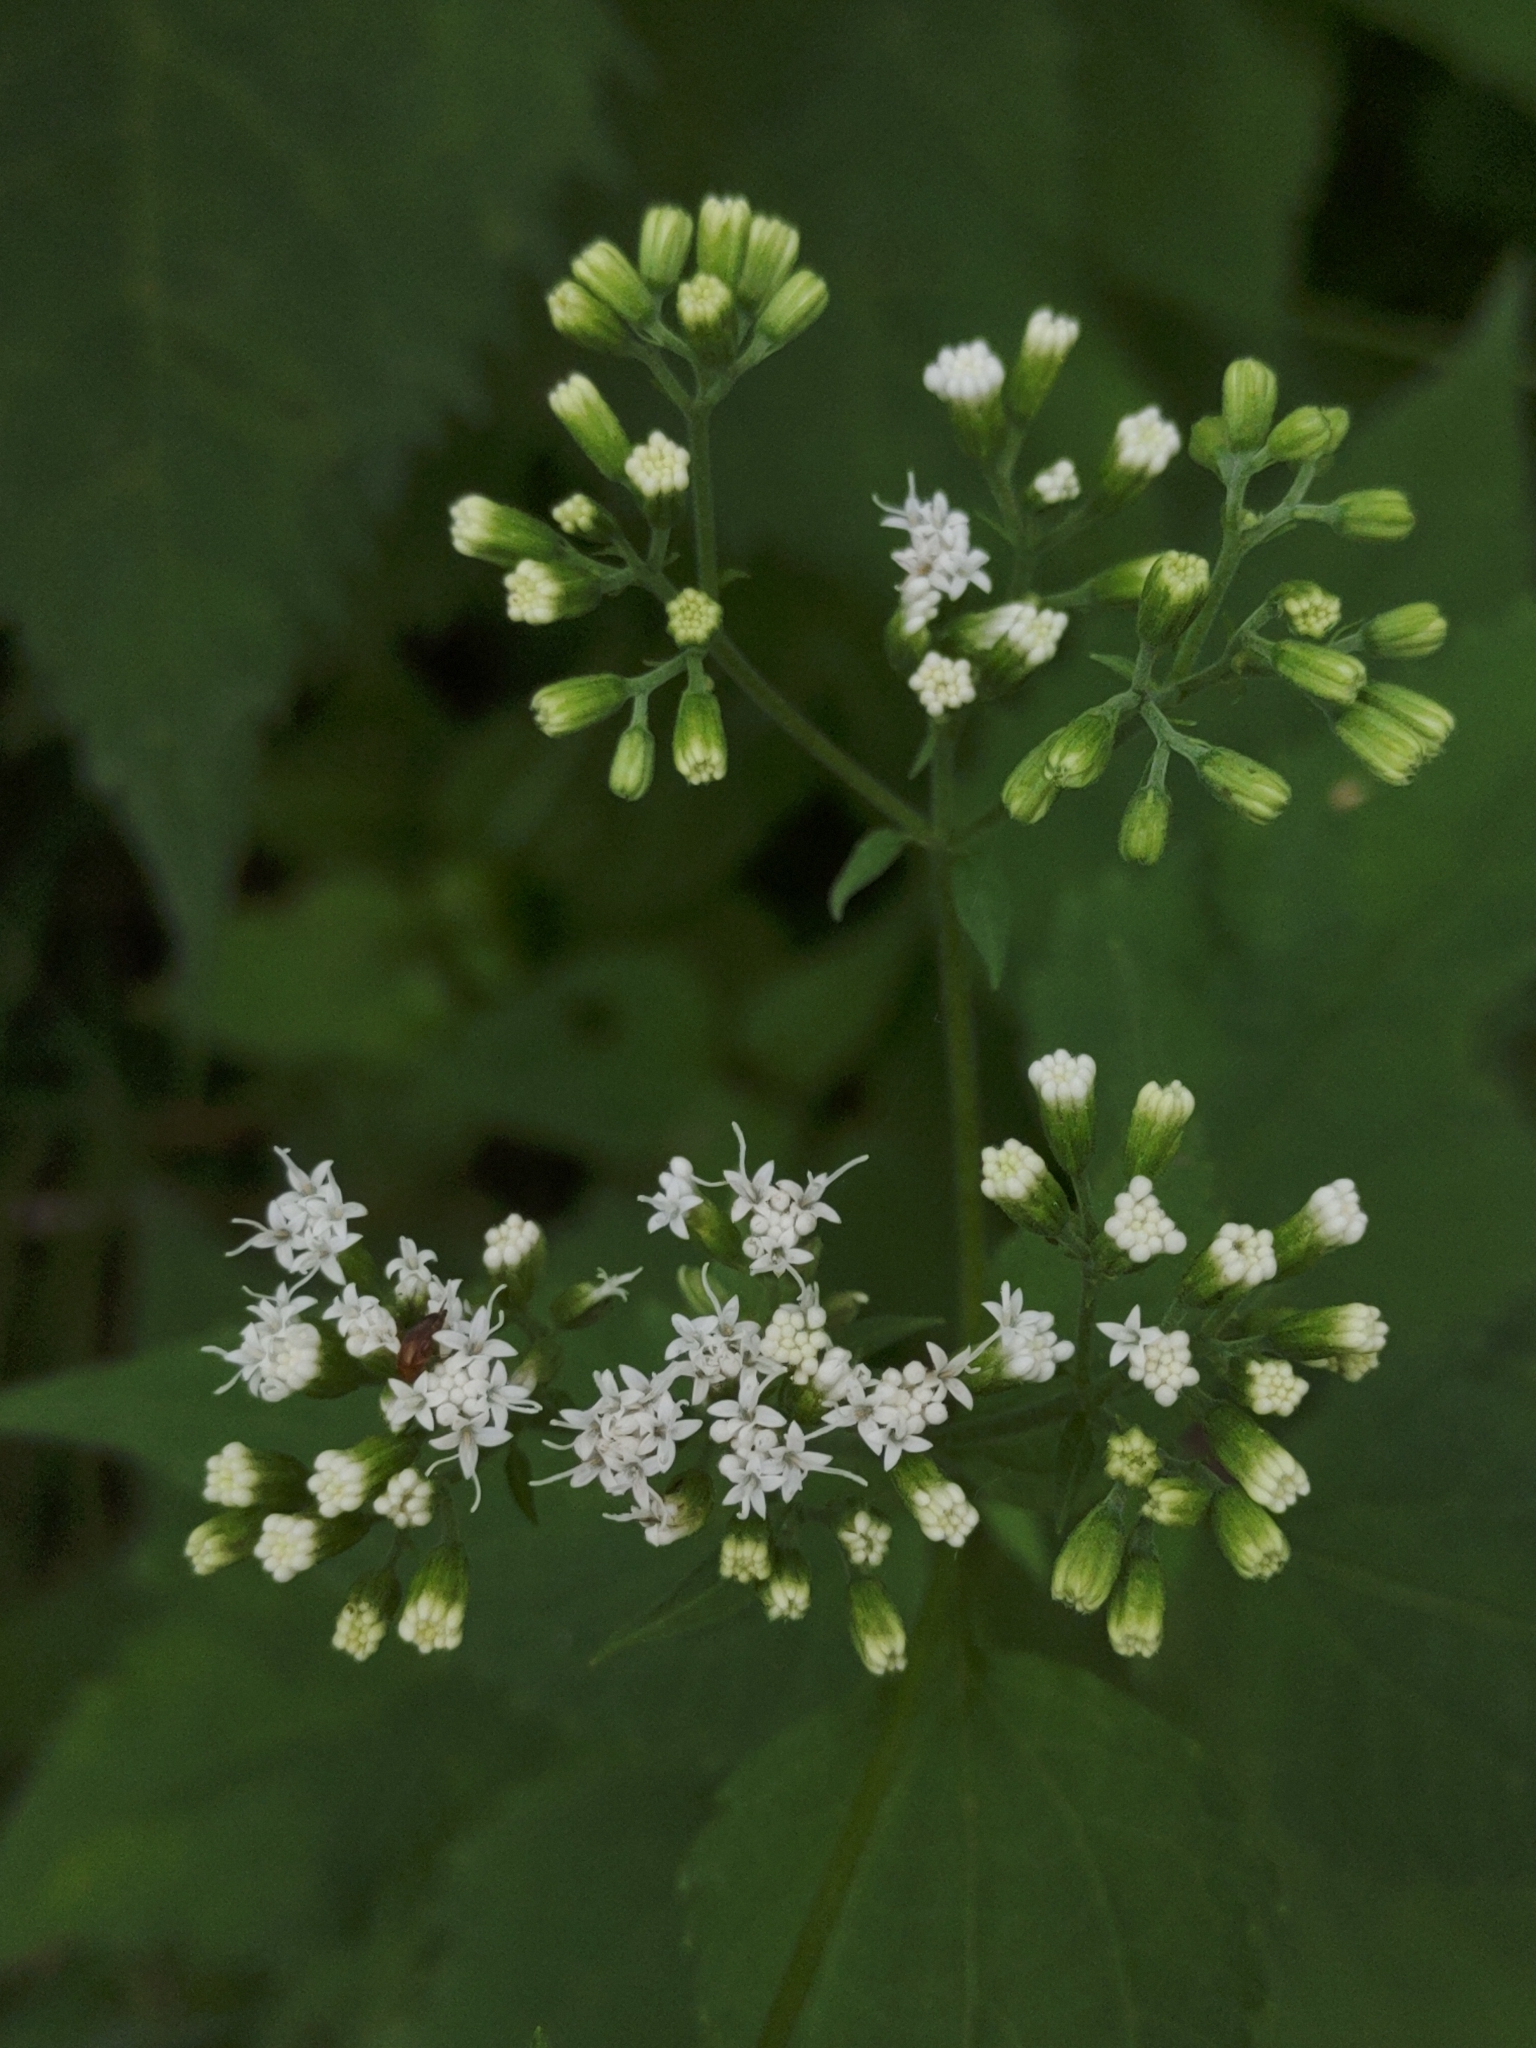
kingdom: Plantae
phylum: Tracheophyta
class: Magnoliopsida
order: Asterales
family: Asteraceae
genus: Ageratina
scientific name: Ageratina altissima
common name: White snakeroot
